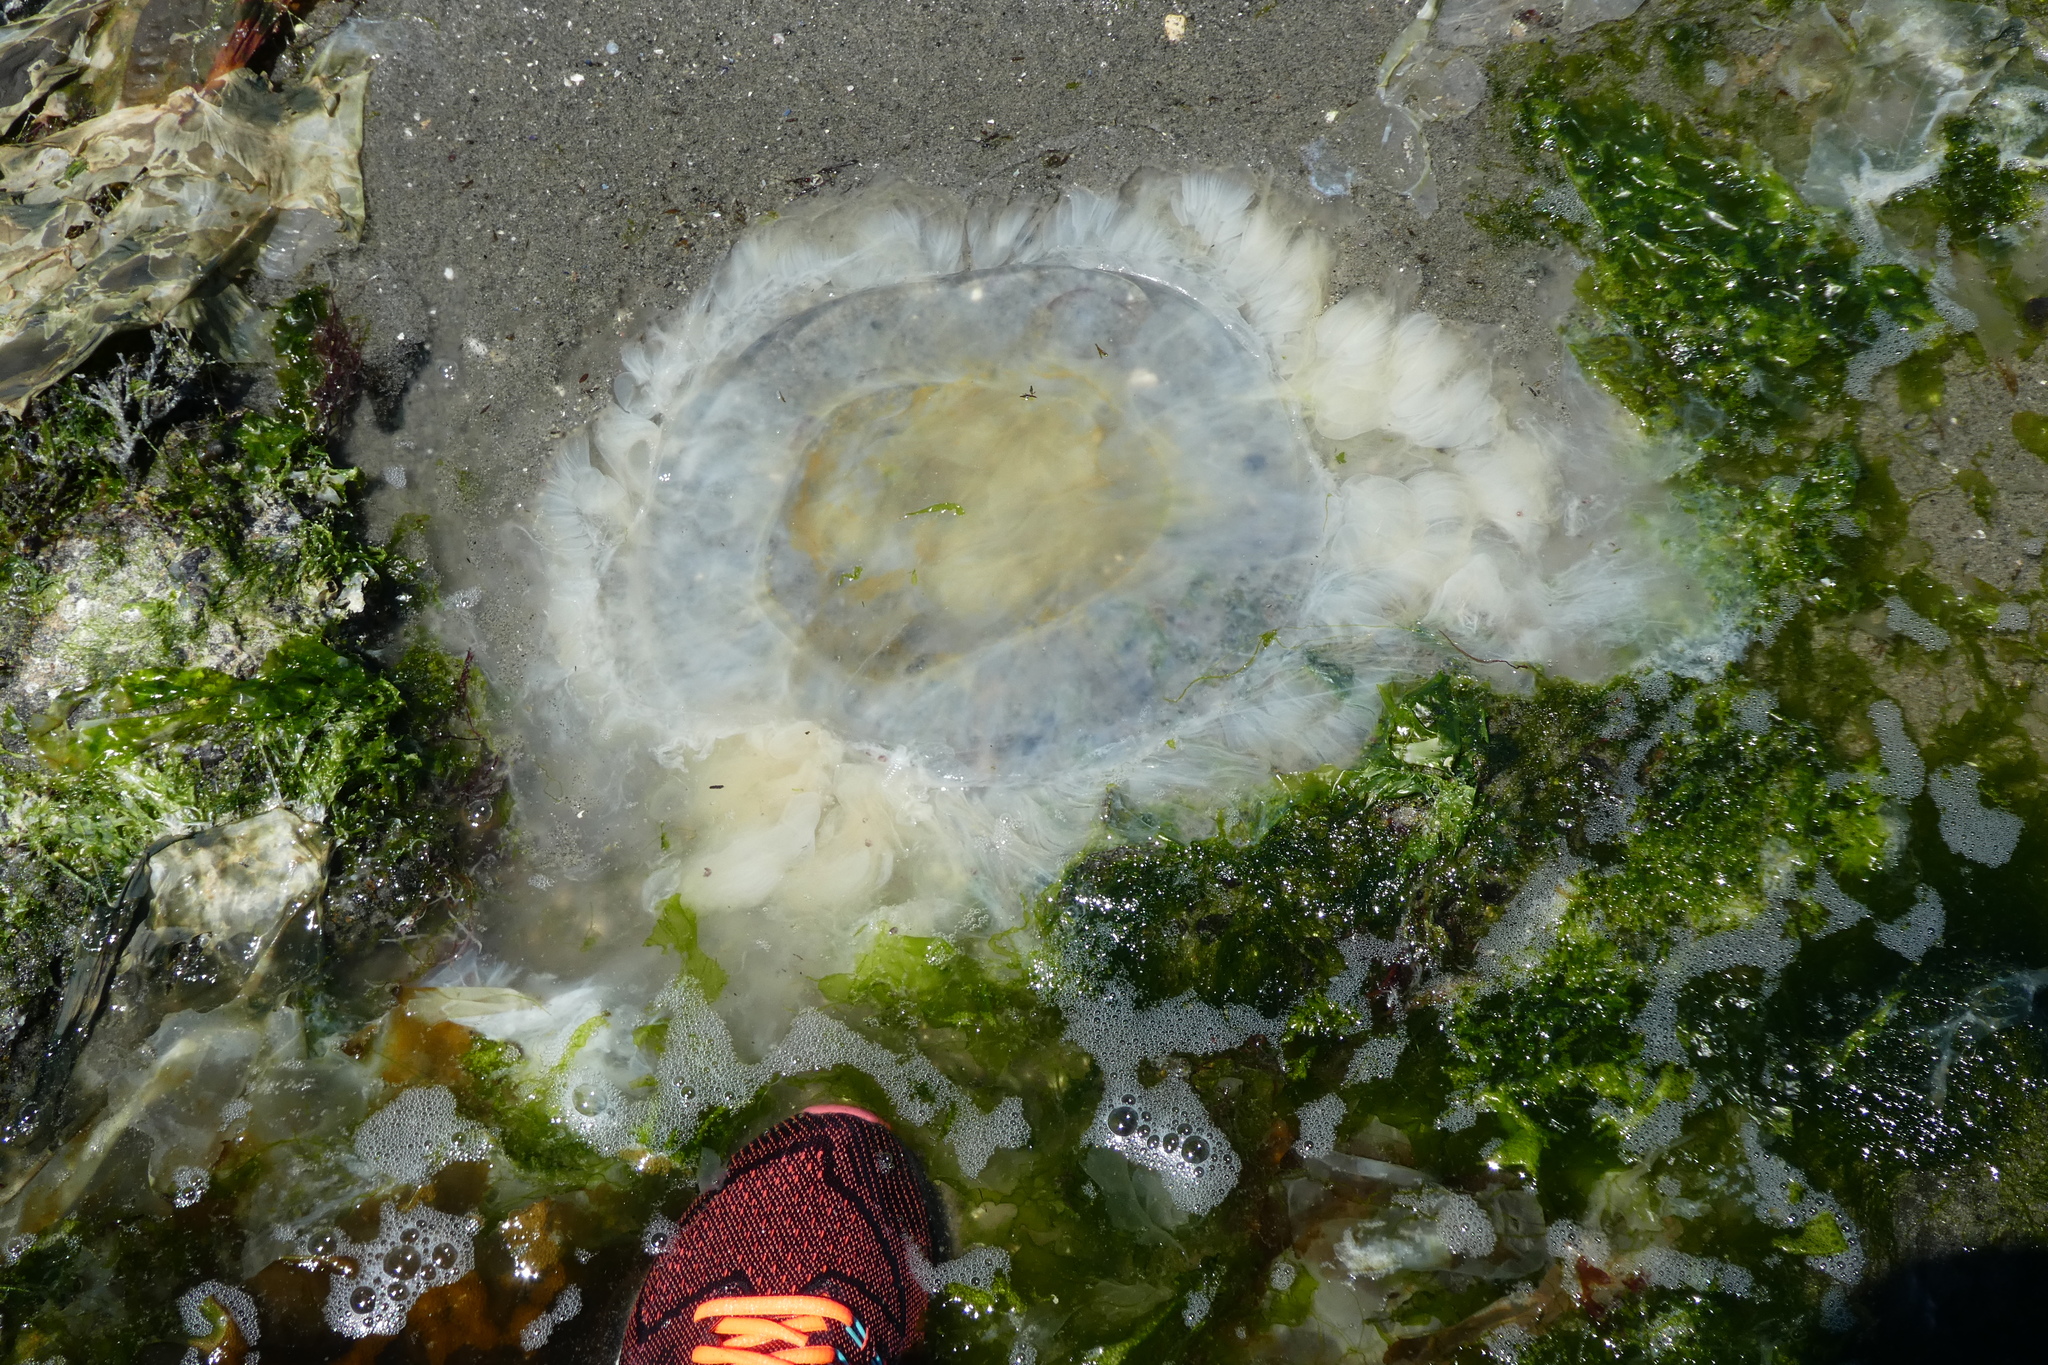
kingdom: Animalia
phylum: Cnidaria
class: Scyphozoa
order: Semaeostomeae
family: Phacellophoridae
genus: Phacellophora
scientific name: Phacellophora camtschatica
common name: Fried-egg jellyfish
